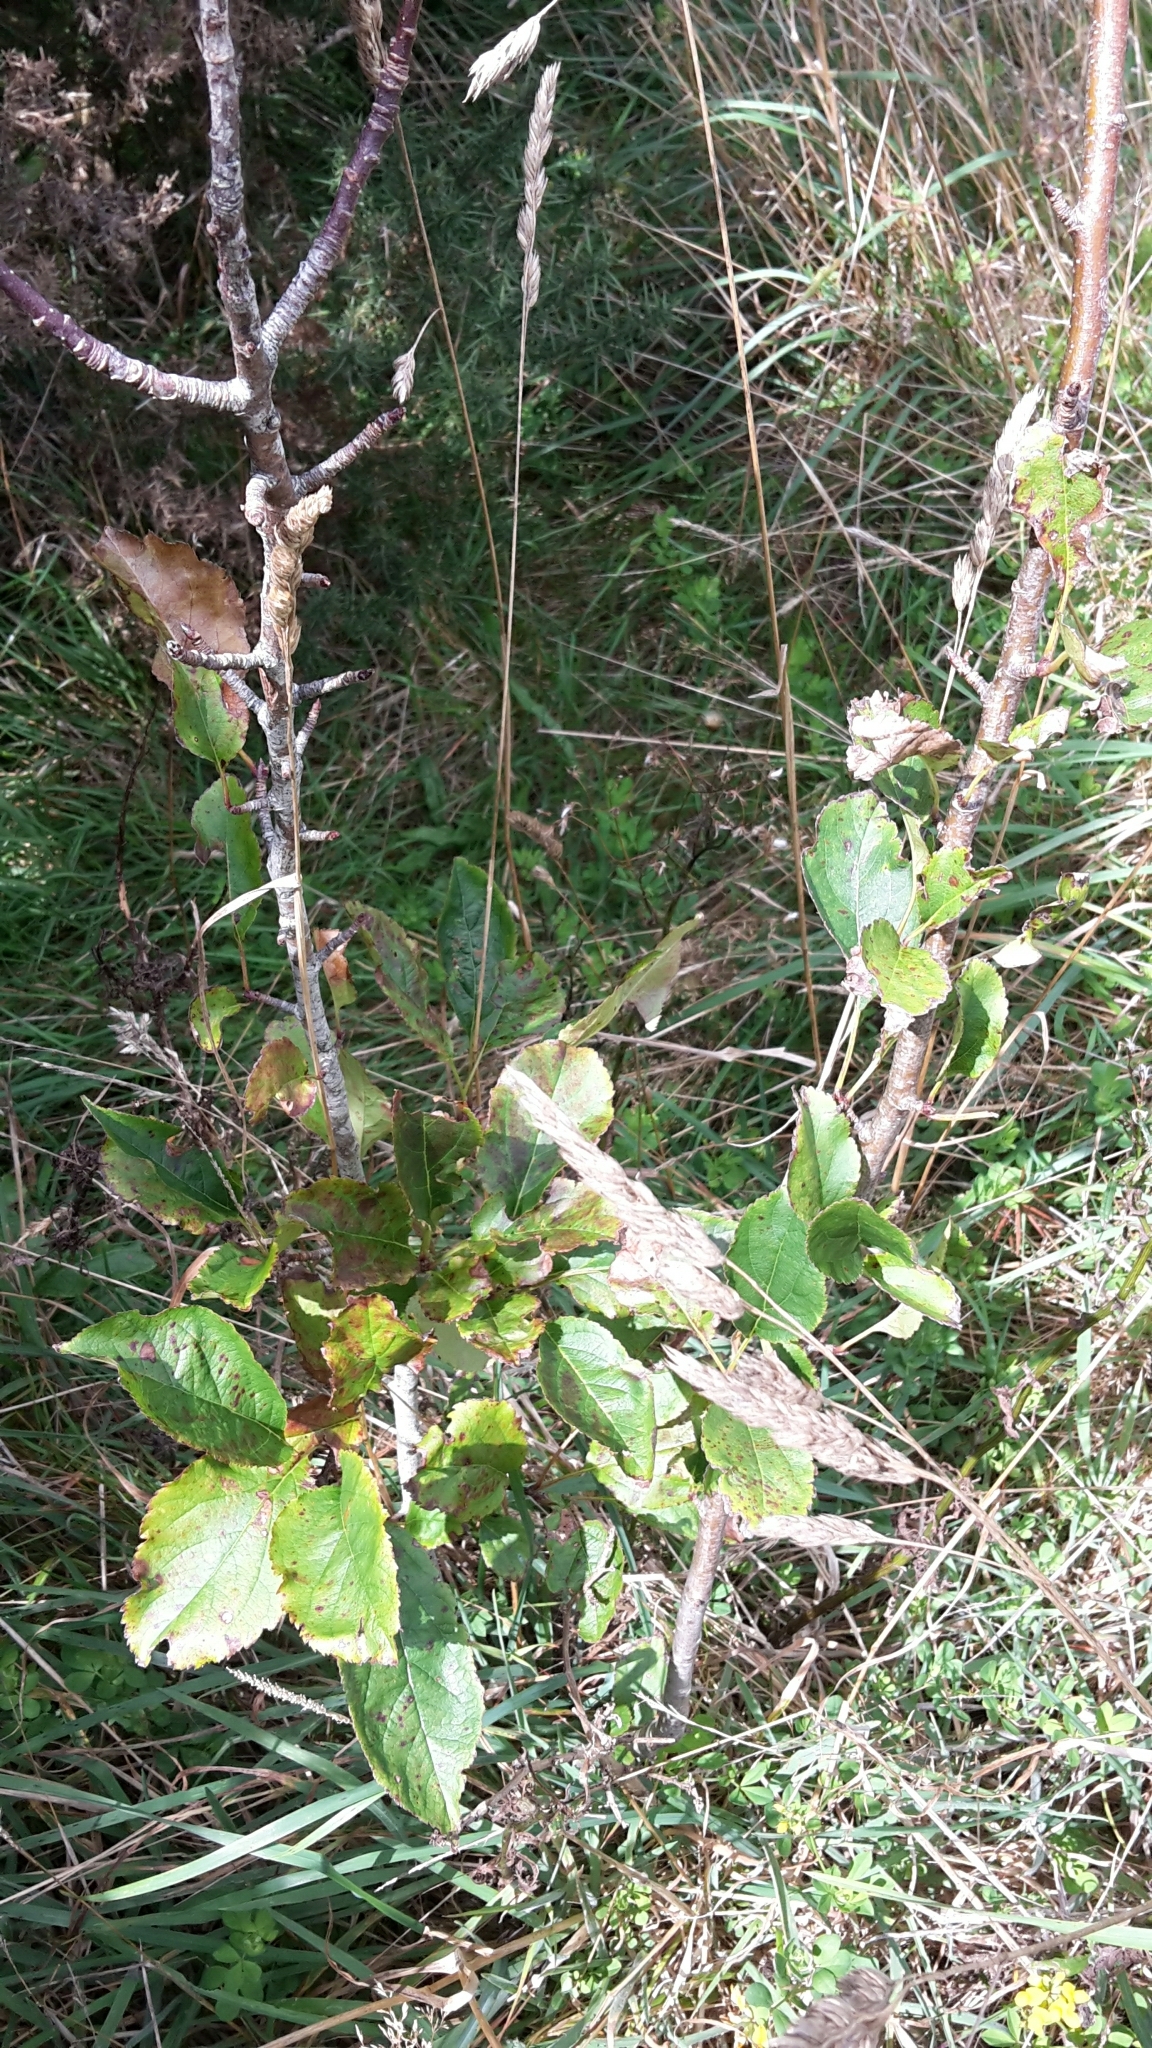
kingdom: Plantae
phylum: Tracheophyta
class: Magnoliopsida
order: Rosales
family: Rosaceae
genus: Malus
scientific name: Malus domestica
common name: Apple
